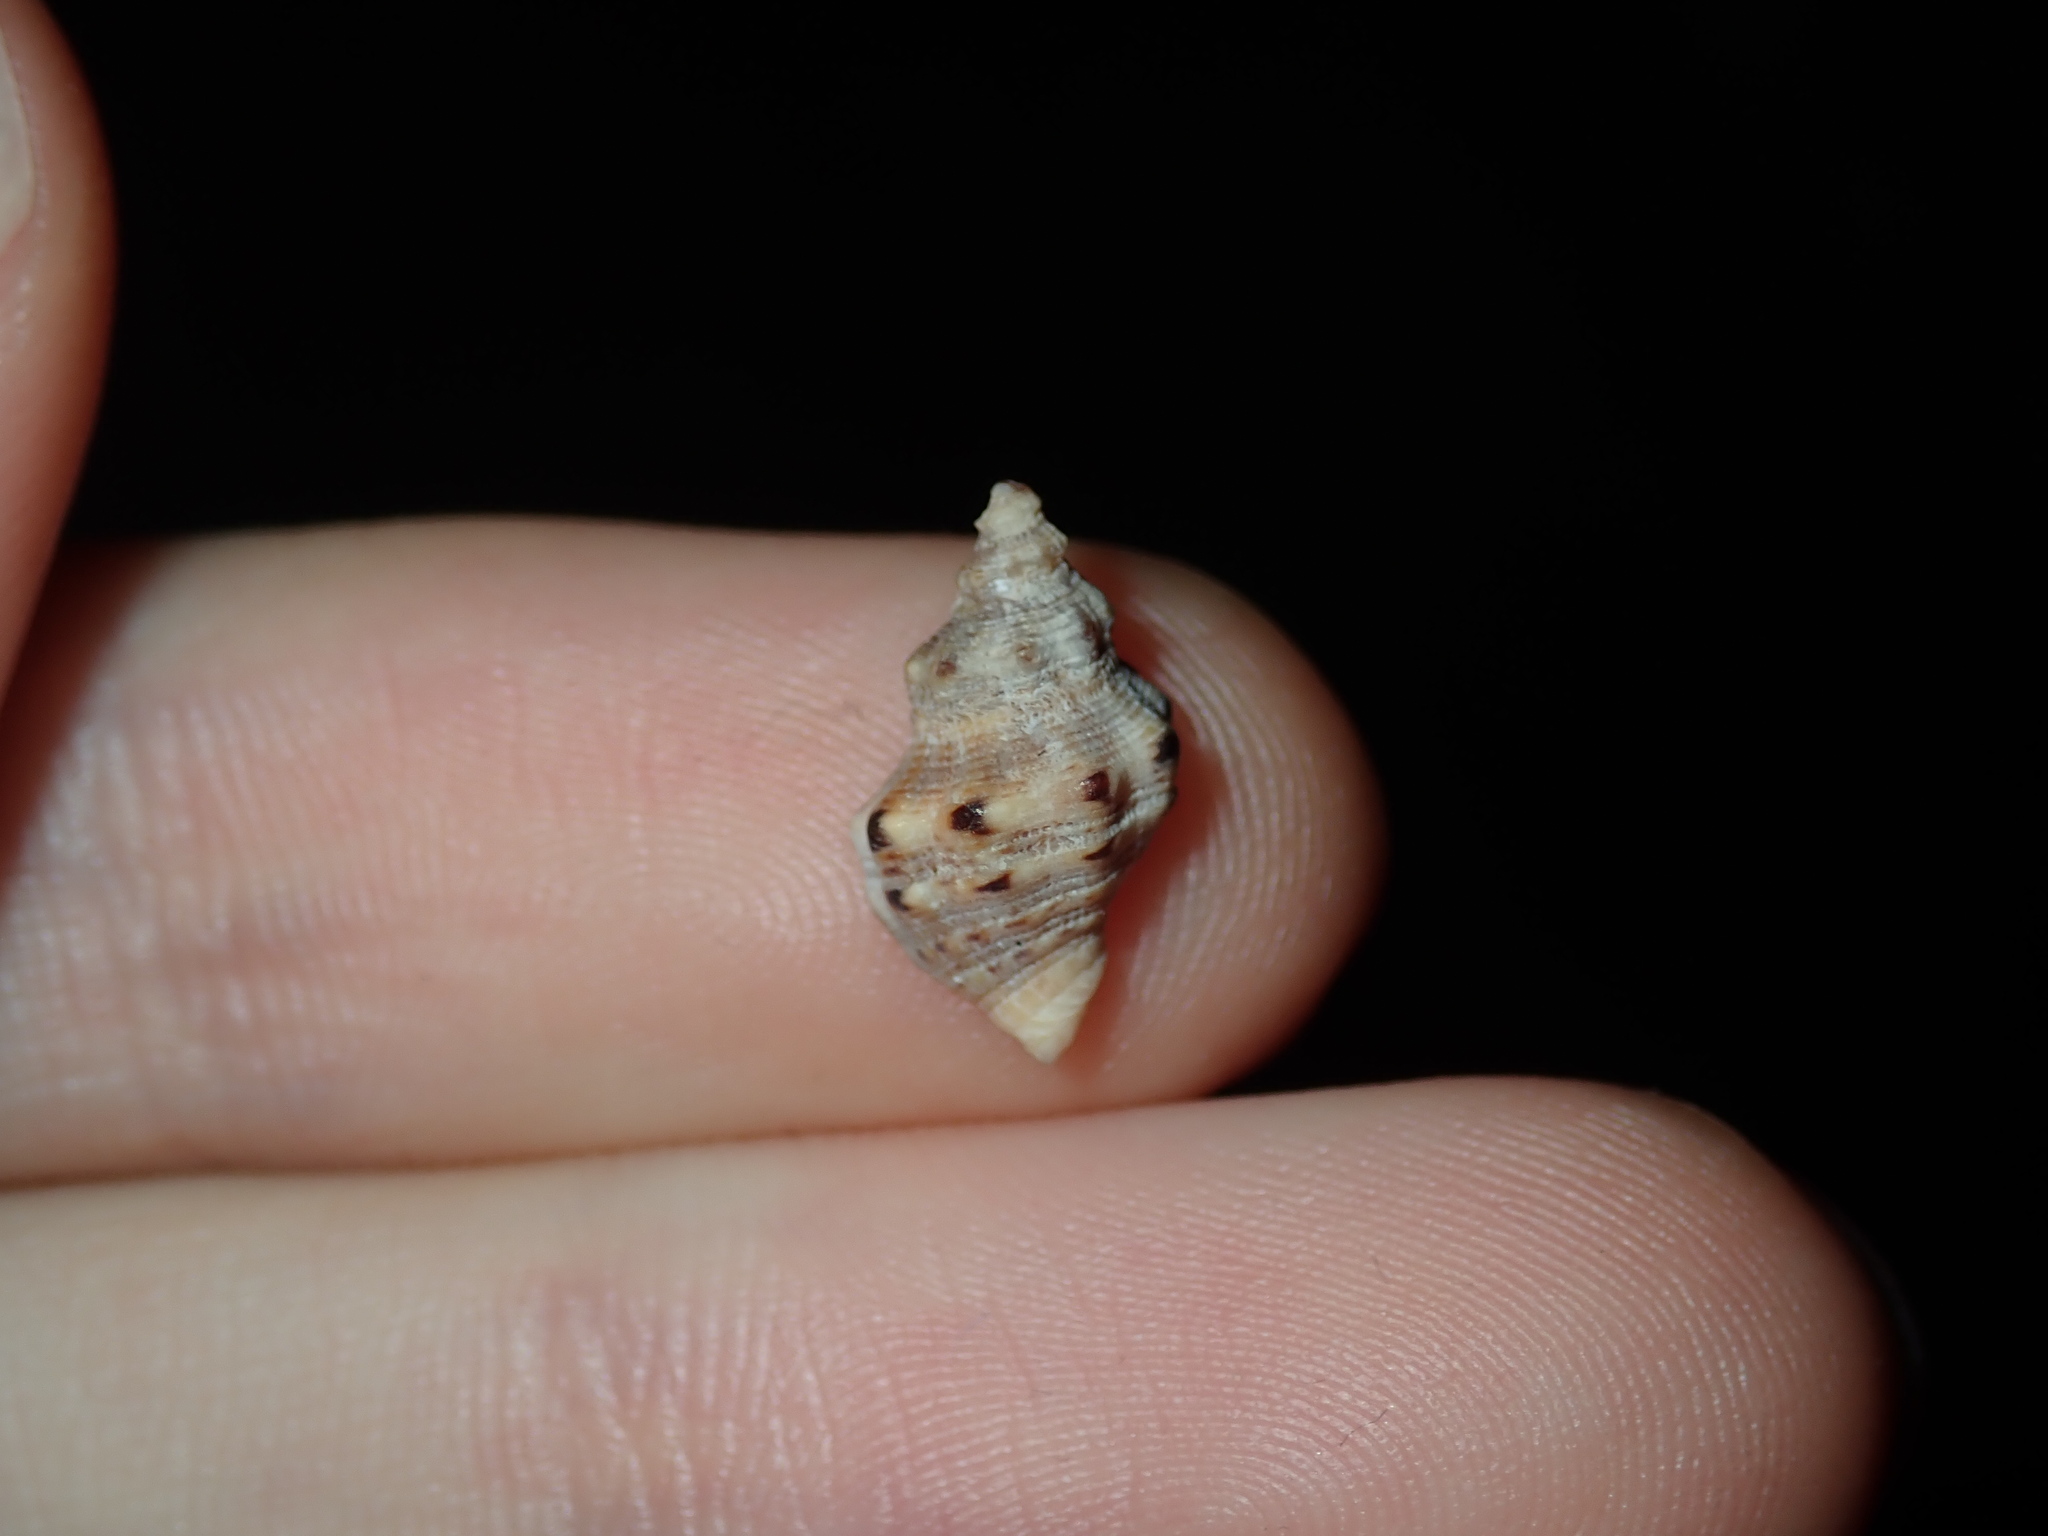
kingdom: Animalia
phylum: Mollusca
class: Gastropoda
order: Neogastropoda
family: Muricidae
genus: Phycothais
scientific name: Phycothais reticulata
